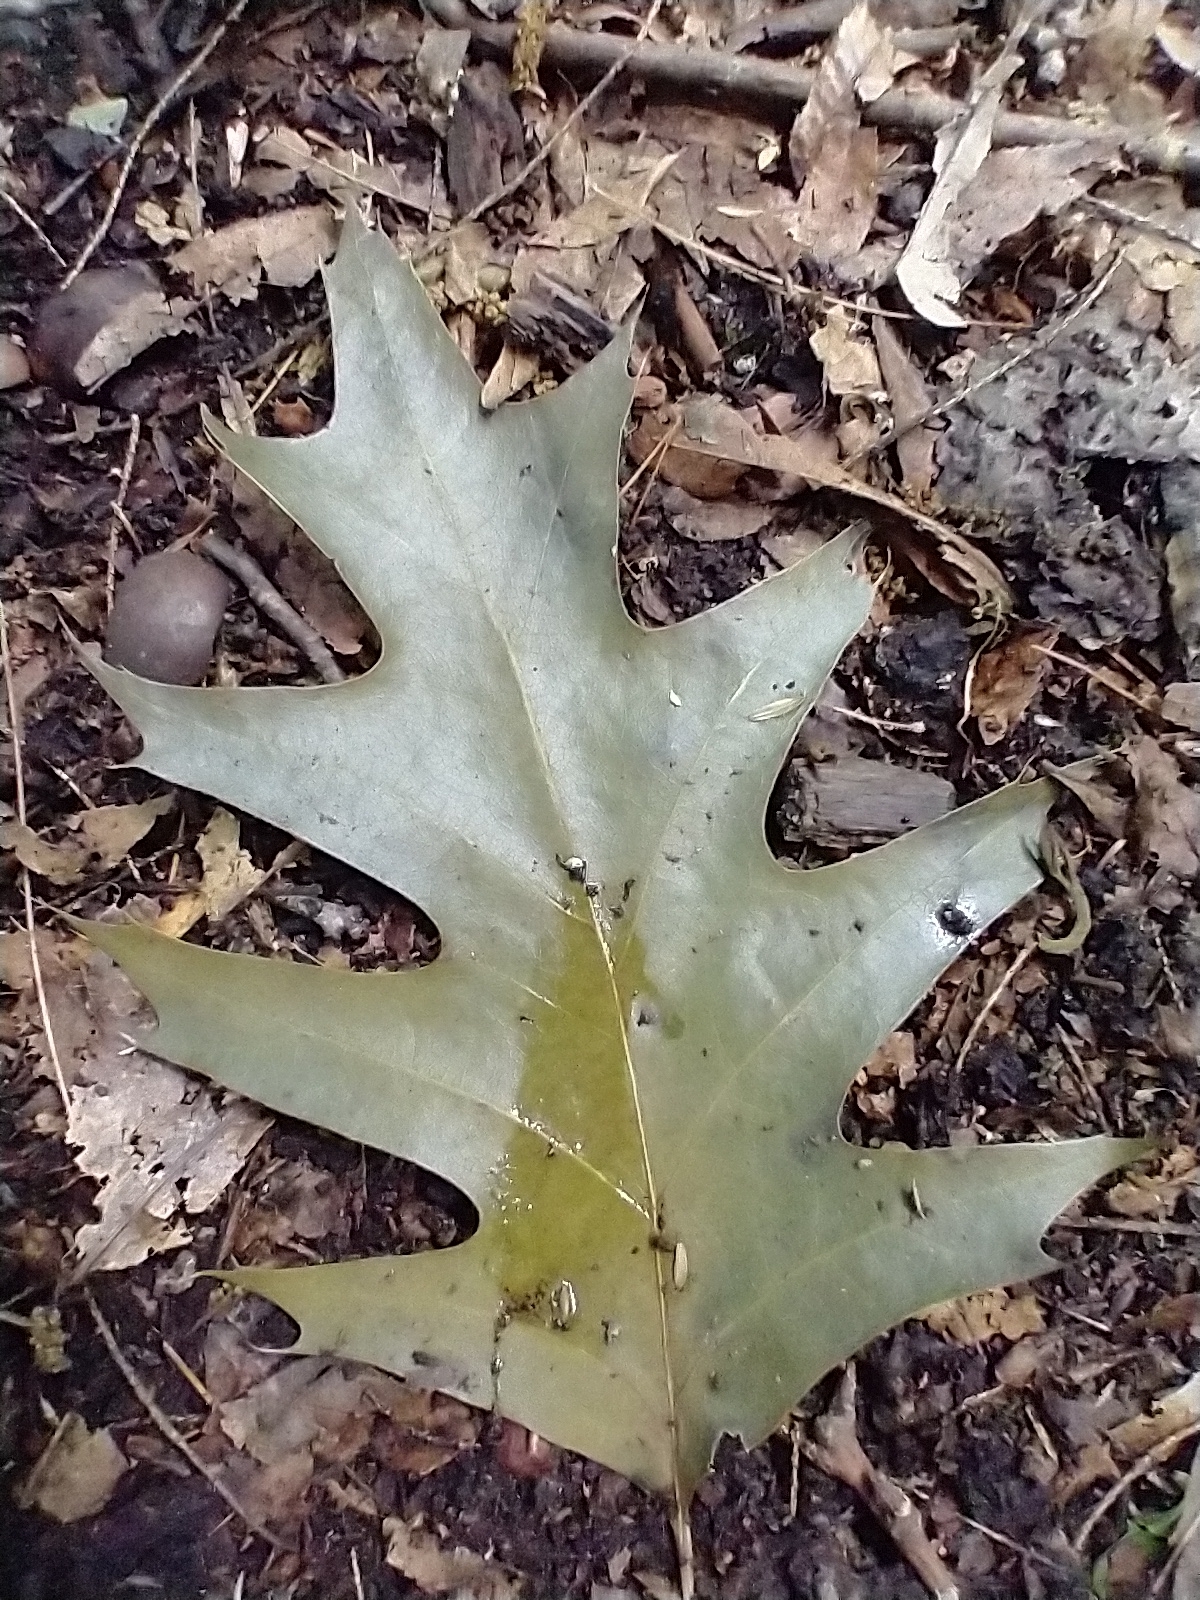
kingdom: Plantae
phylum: Tracheophyta
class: Magnoliopsida
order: Fagales
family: Fagaceae
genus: Quercus
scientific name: Quercus rubra
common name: Red oak
